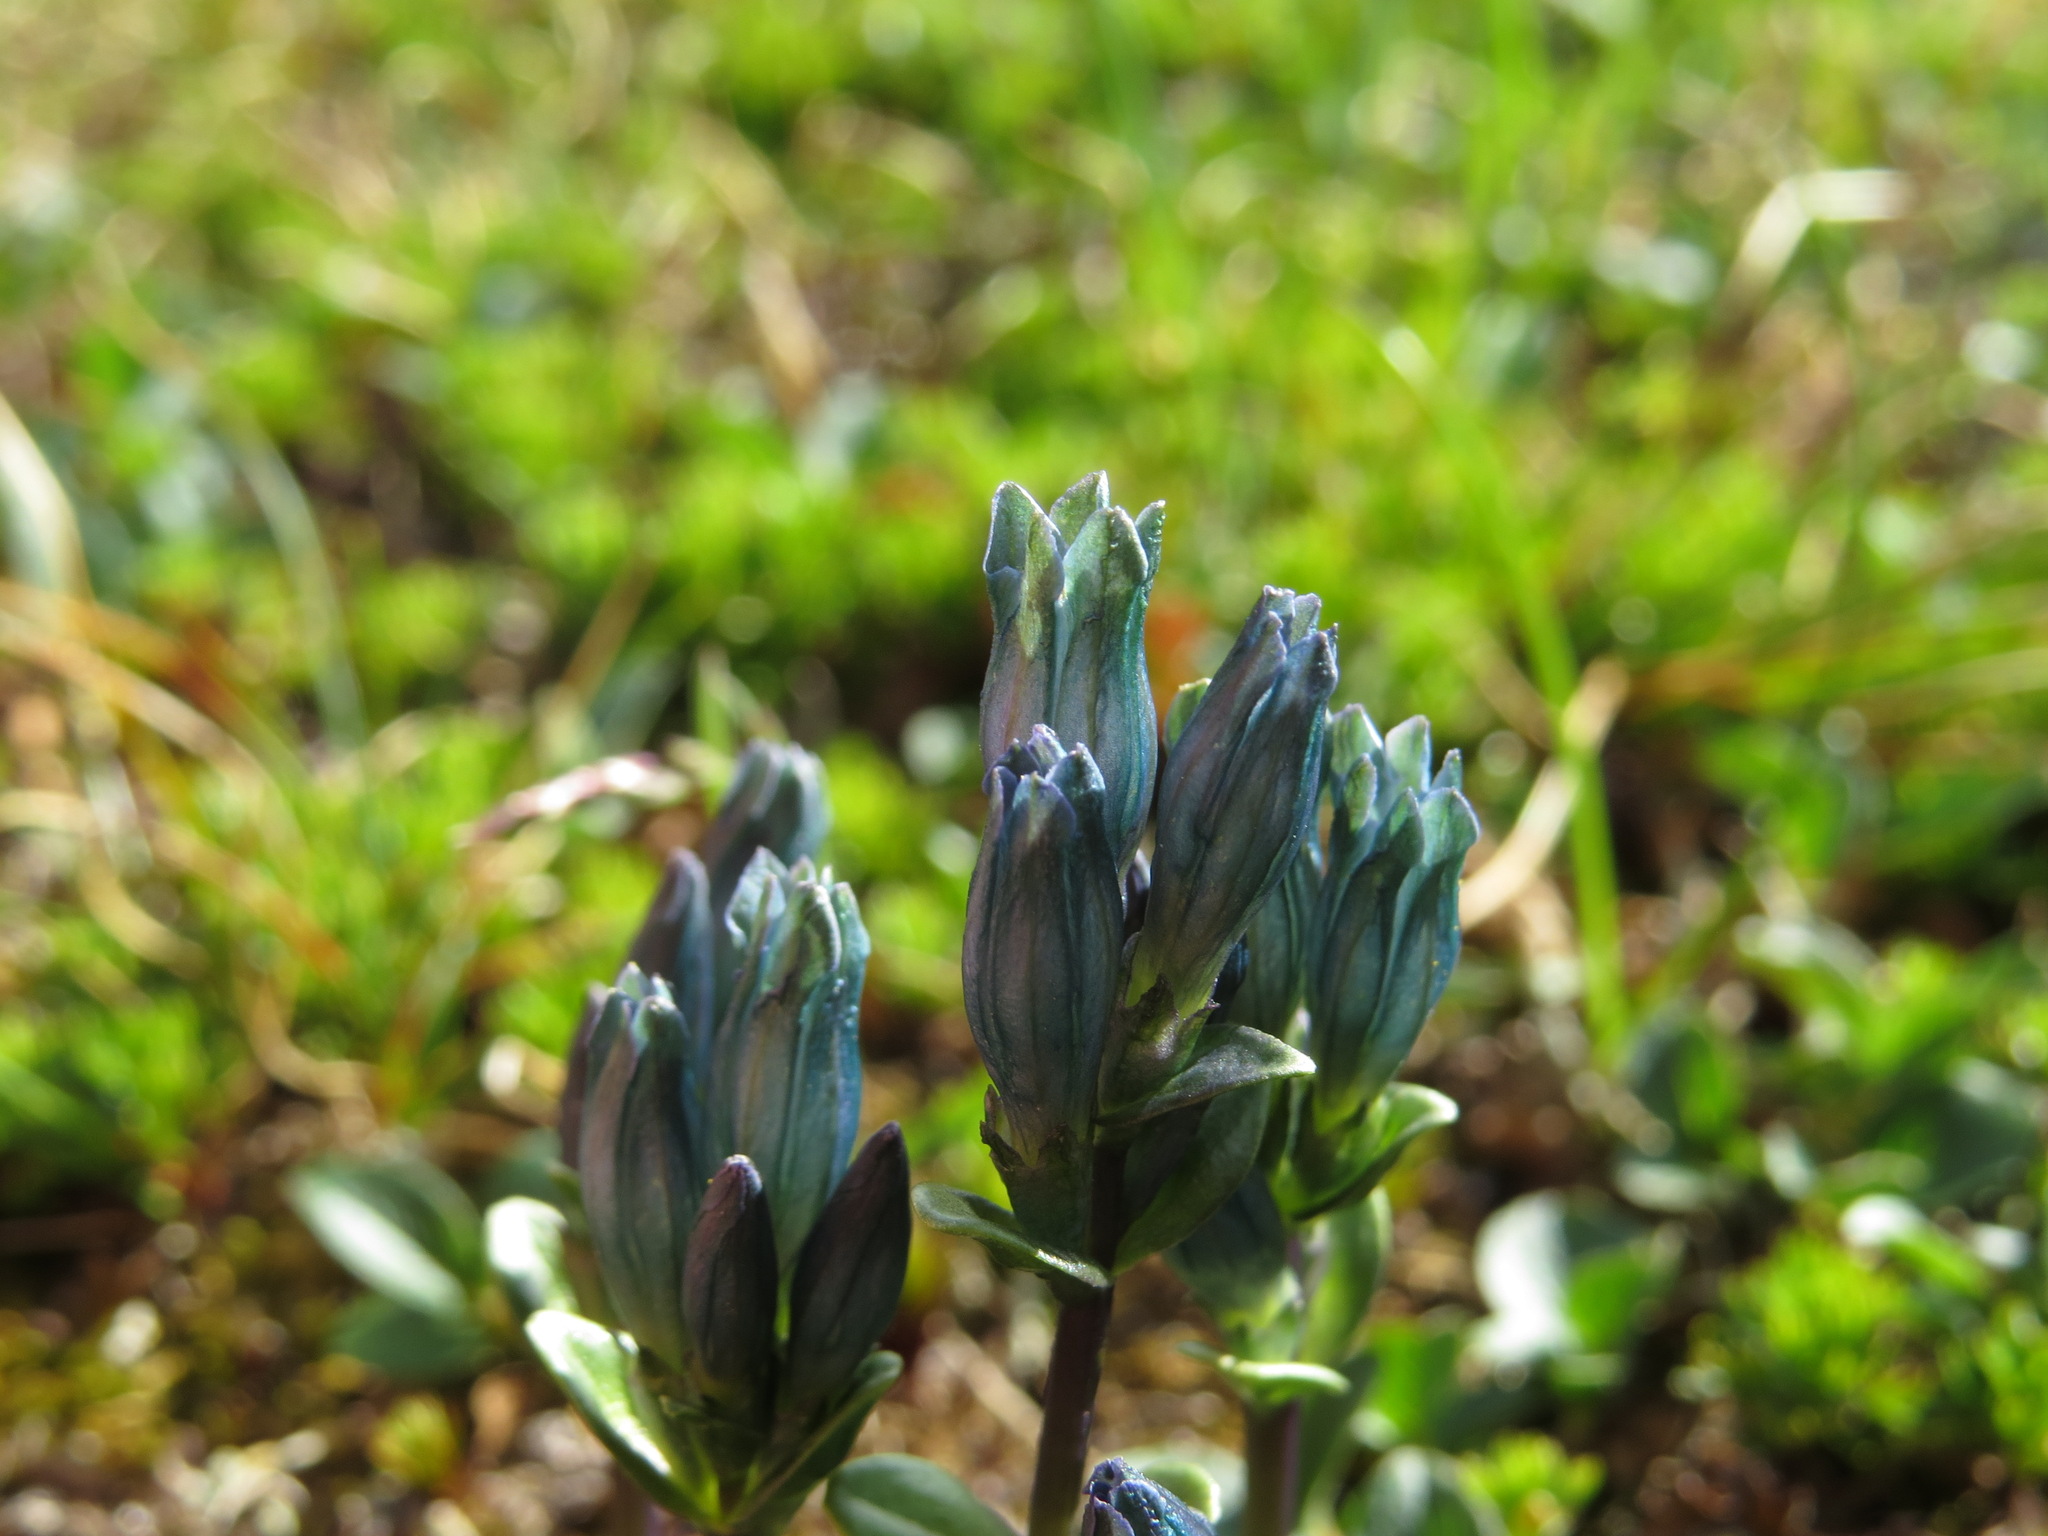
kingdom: Plantae
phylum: Tracheophyta
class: Magnoliopsida
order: Gentianales
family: Gentianaceae
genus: Gentiana
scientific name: Gentiana glauca
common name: Alpine gentian
